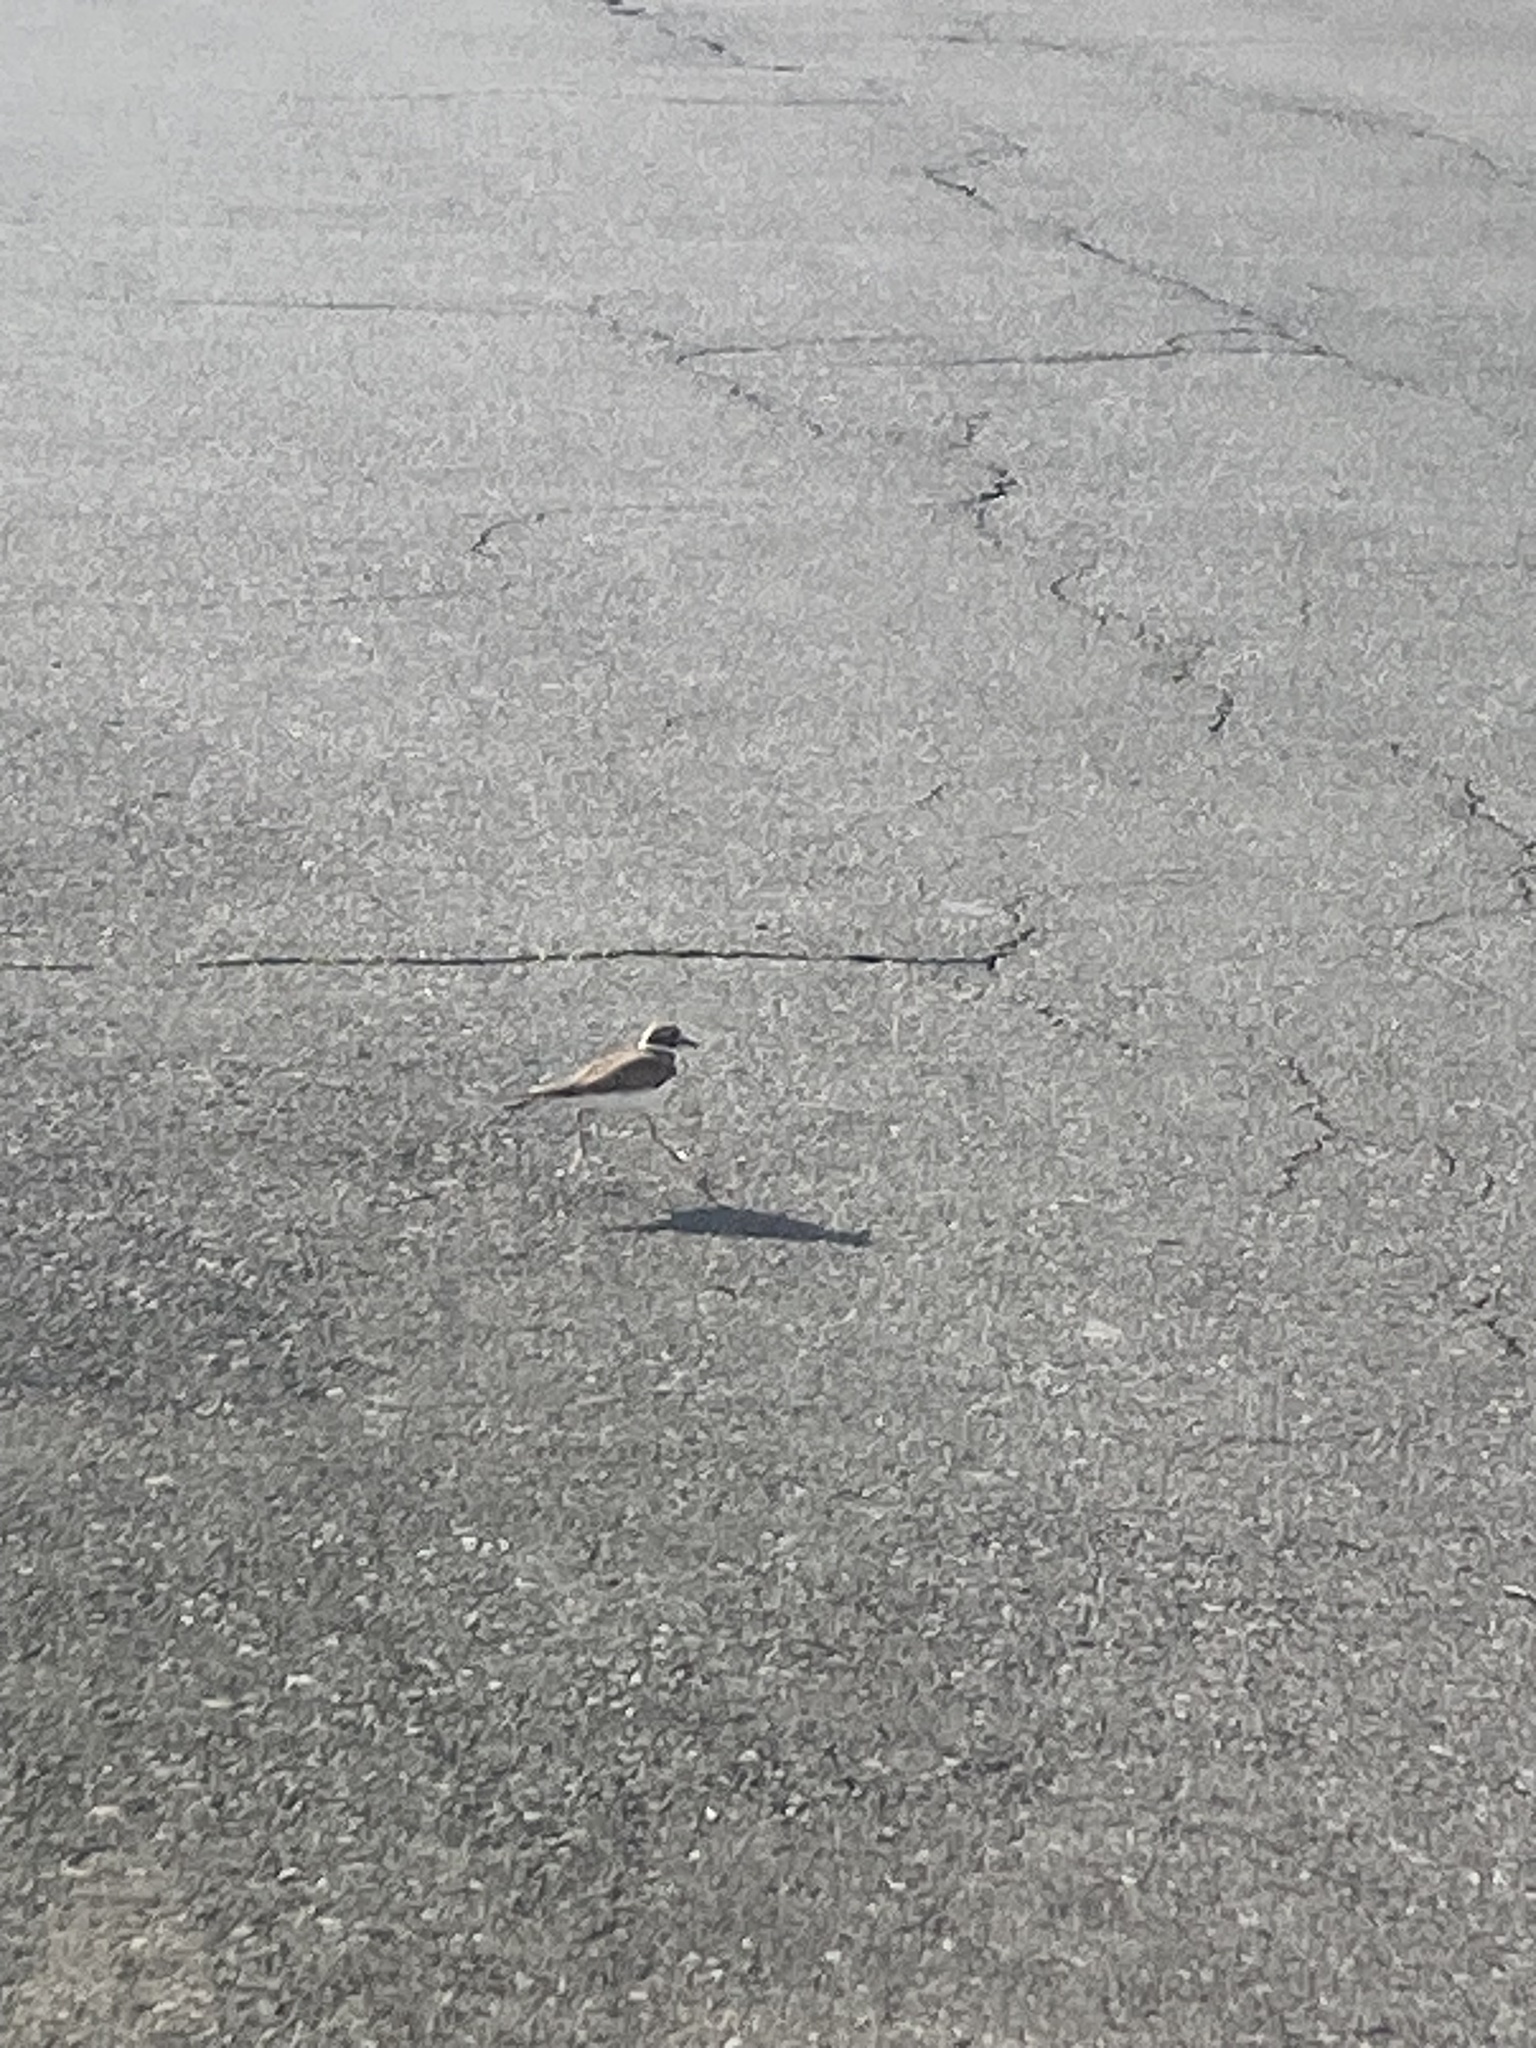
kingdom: Animalia
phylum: Chordata
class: Aves
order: Charadriiformes
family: Charadriidae
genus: Charadrius
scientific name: Charadrius vociferus
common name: Killdeer
